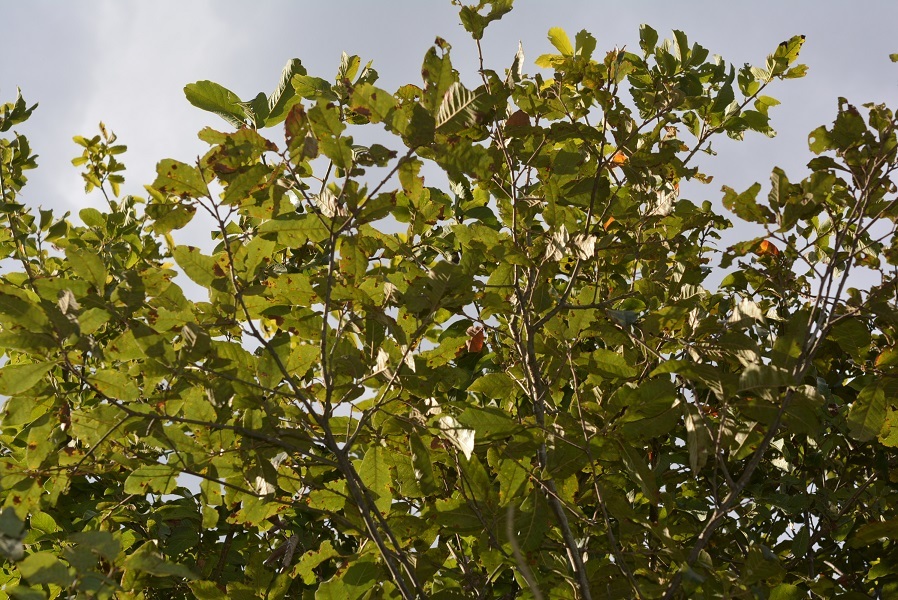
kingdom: Plantae
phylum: Tracheophyta
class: Magnoliopsida
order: Fagales
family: Fagaceae
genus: Quercus
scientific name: Quercus crispipilis
